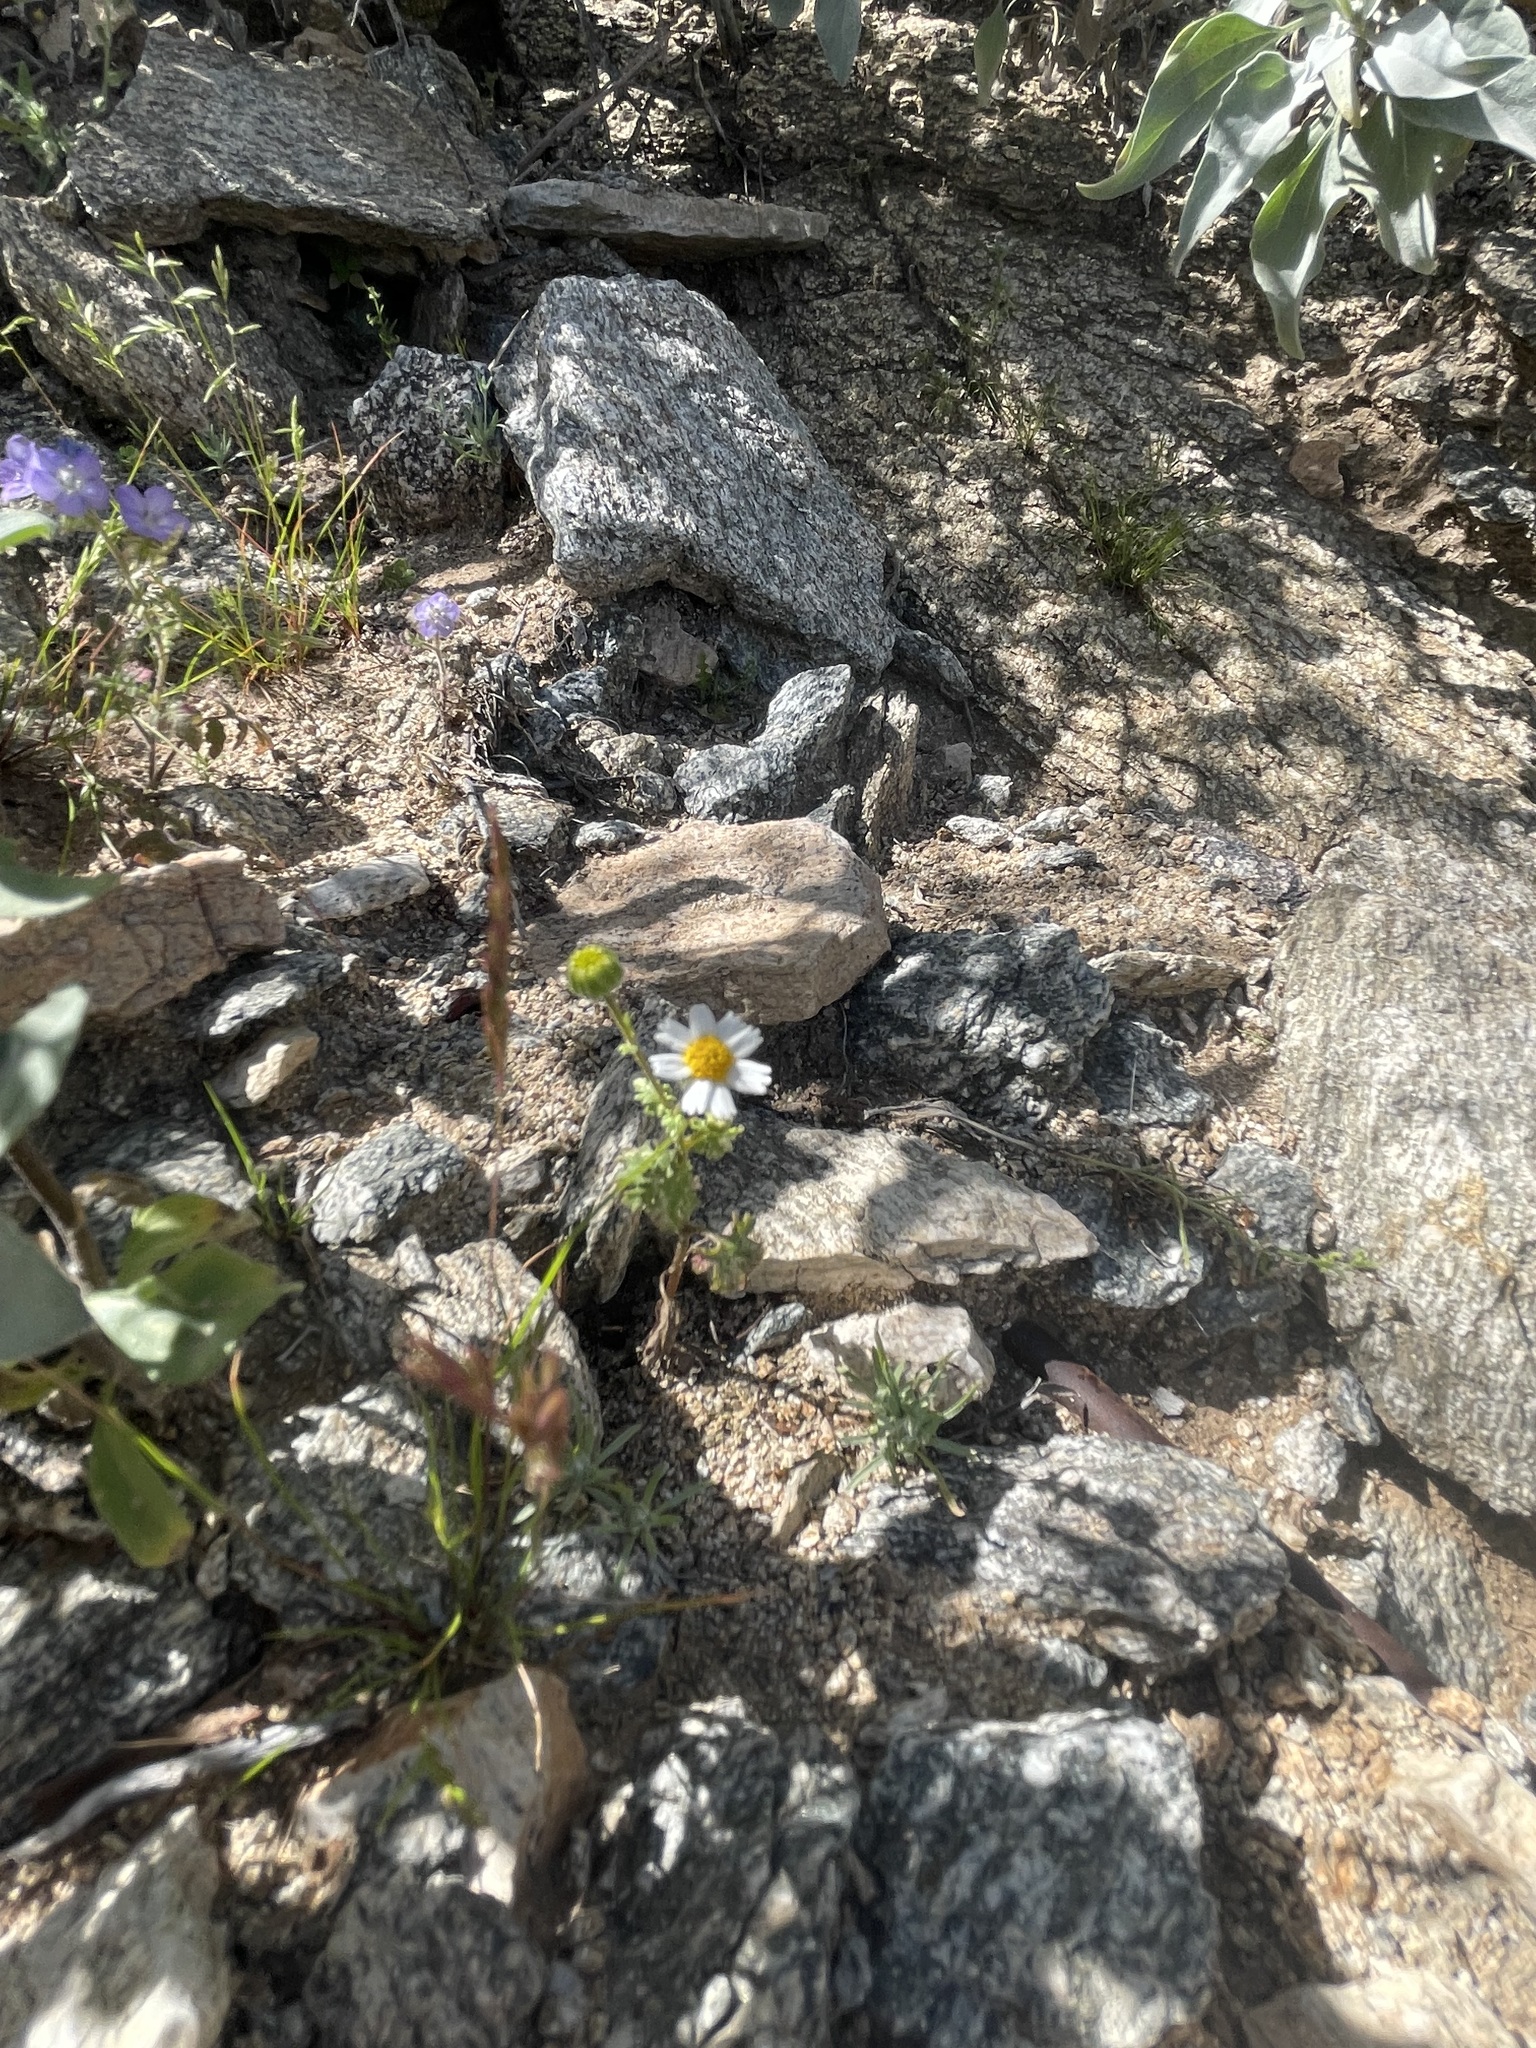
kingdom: Plantae
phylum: Tracheophyta
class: Magnoliopsida
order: Asterales
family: Asteraceae
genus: Laphamia
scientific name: Laphamia emoryi
